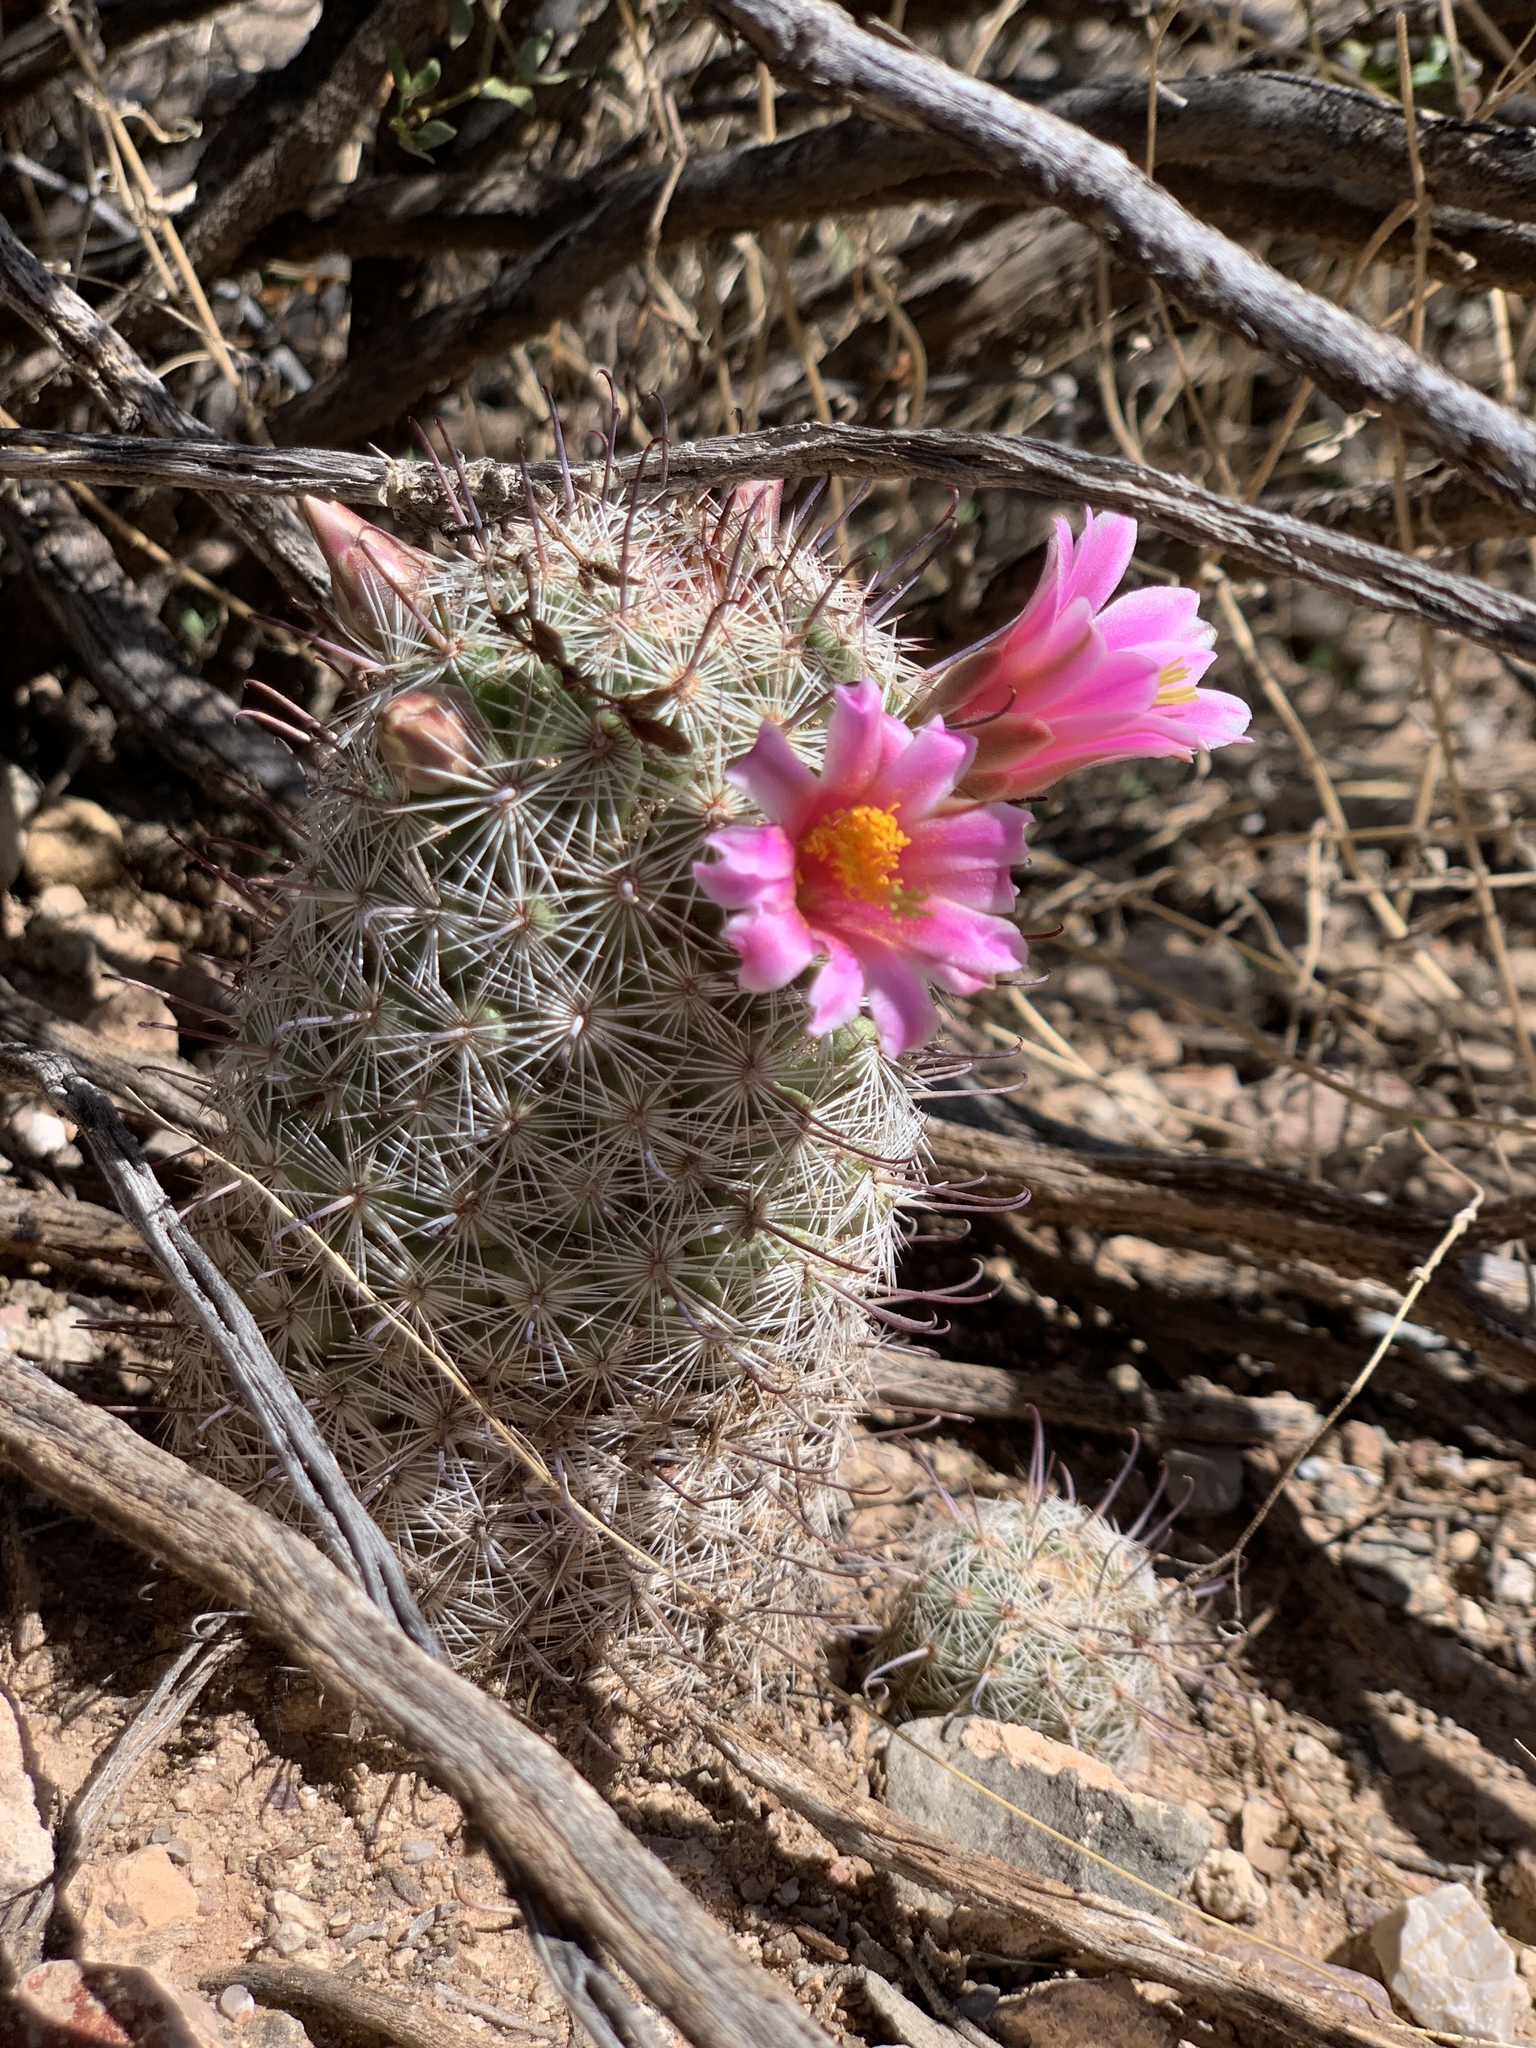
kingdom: Plantae
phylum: Tracheophyta
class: Magnoliopsida
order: Caryophyllales
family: Cactaceae
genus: Cochemiea
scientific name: Cochemiea grahamii
